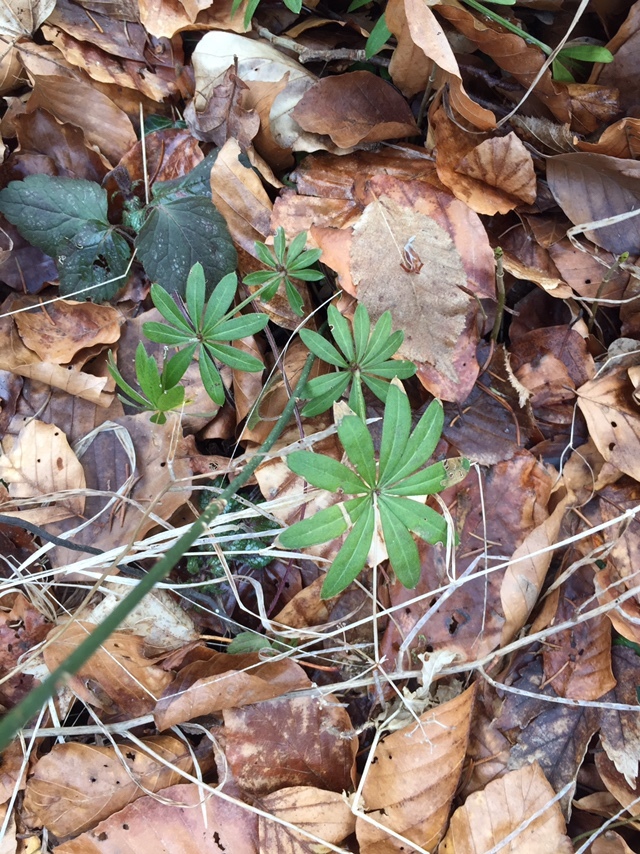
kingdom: Plantae
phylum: Tracheophyta
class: Magnoliopsida
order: Gentianales
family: Rubiaceae
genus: Galium
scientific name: Galium odoratum
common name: Sweet woodruff
